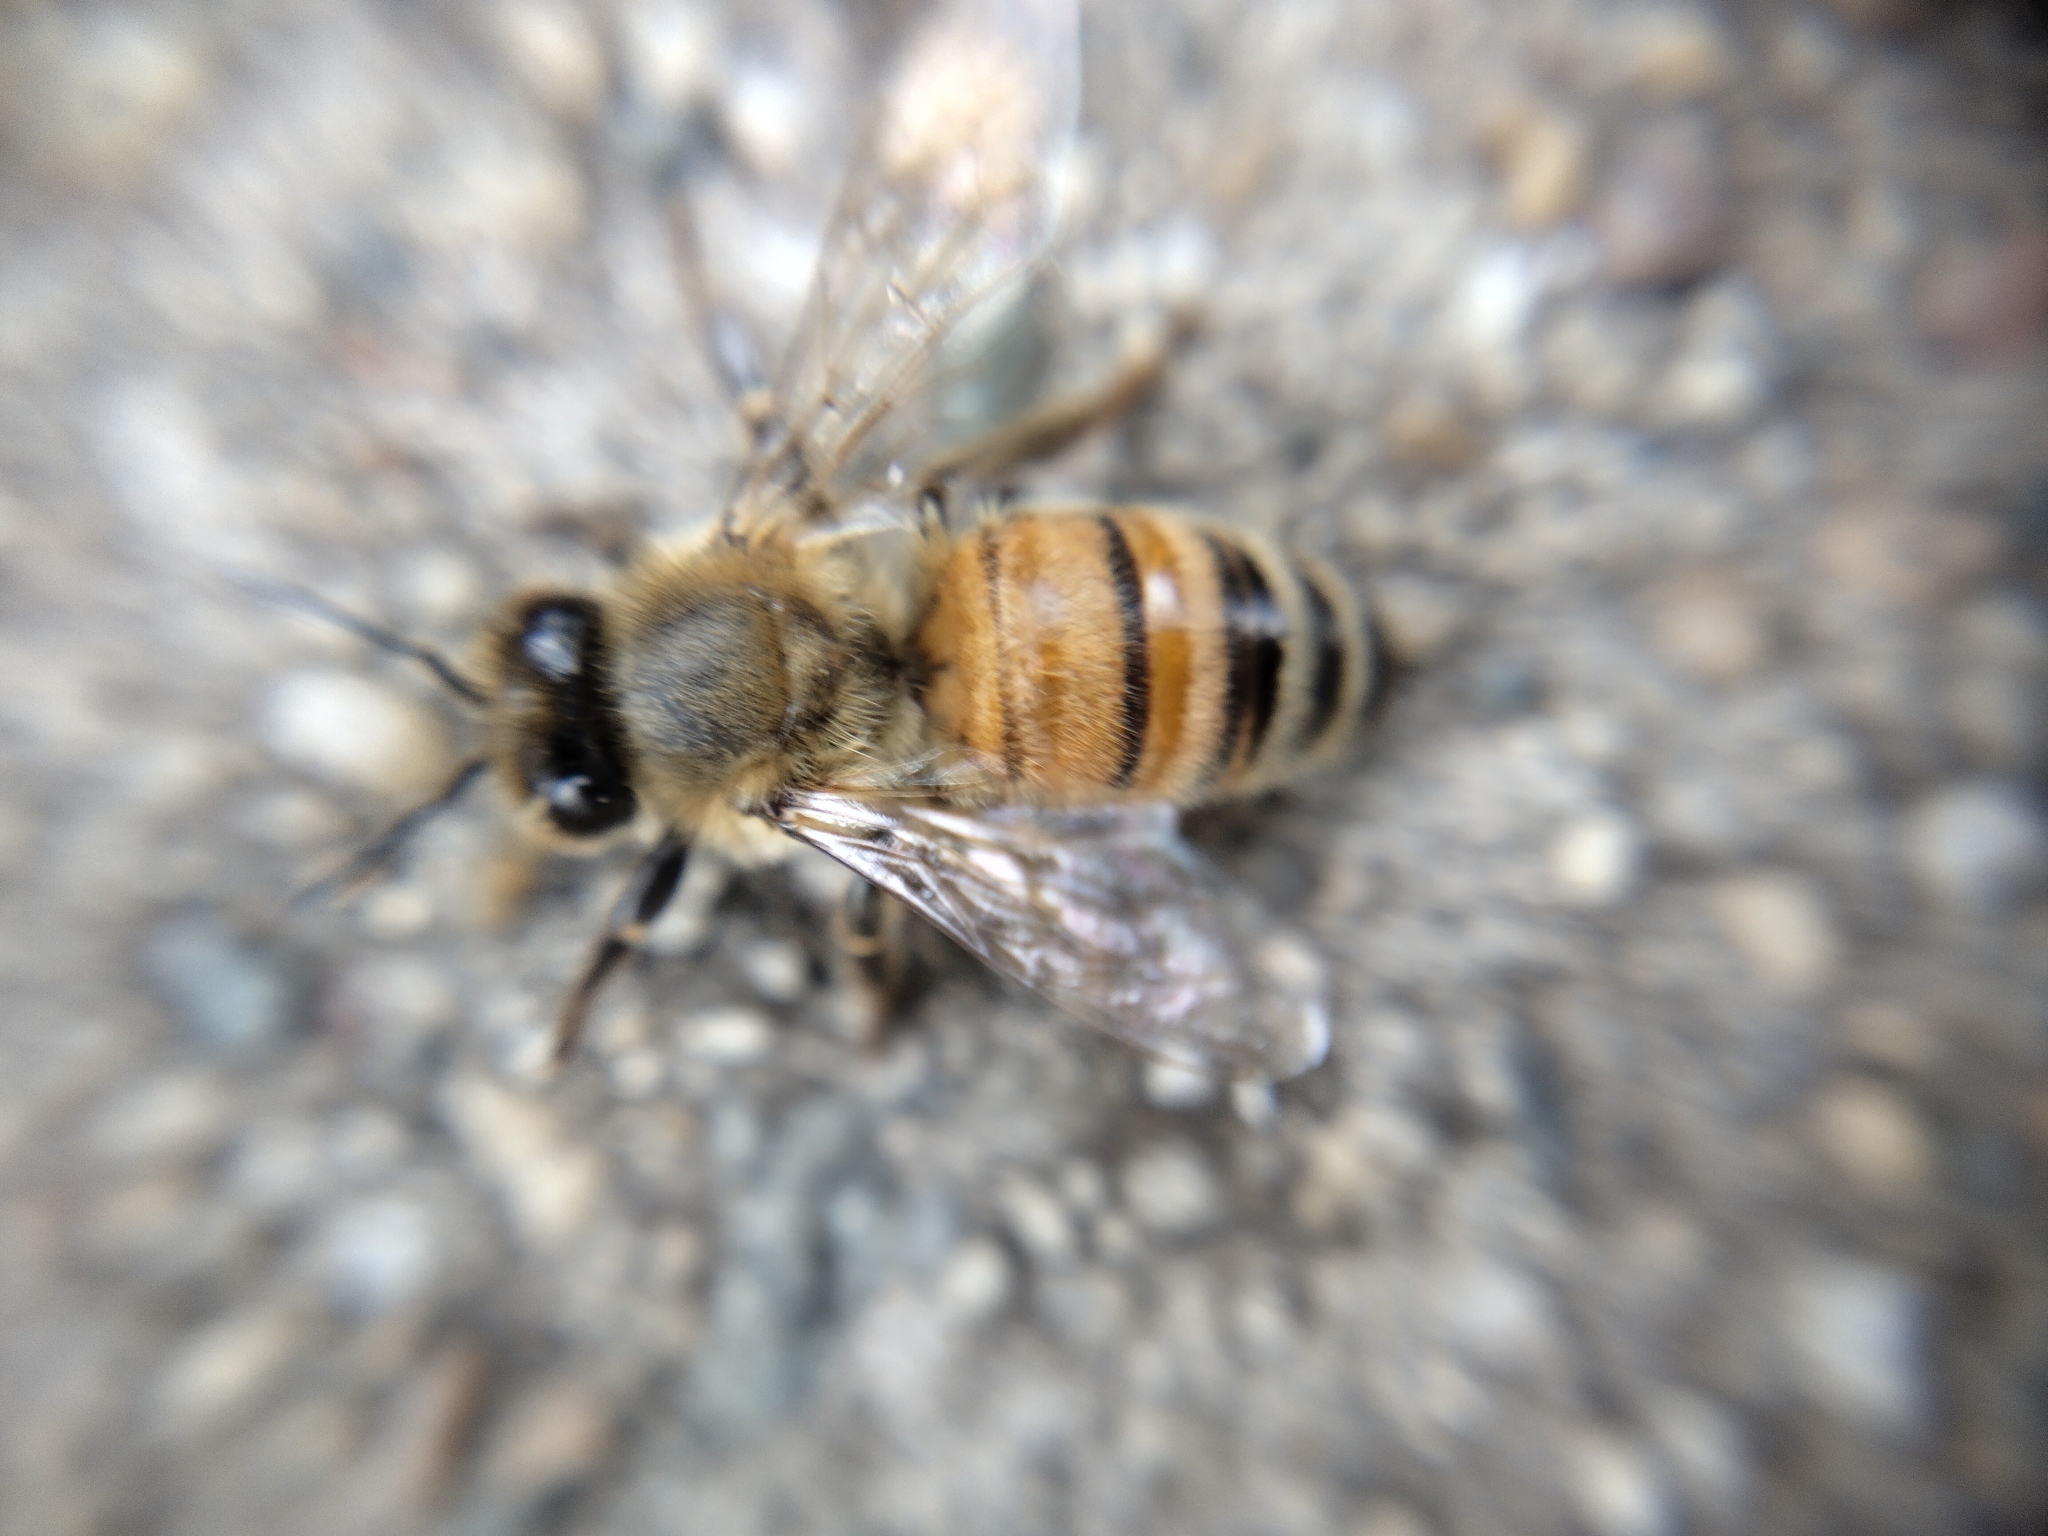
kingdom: Animalia
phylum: Arthropoda
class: Insecta
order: Hymenoptera
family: Apidae
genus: Apis
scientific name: Apis mellifera
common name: Honey bee
